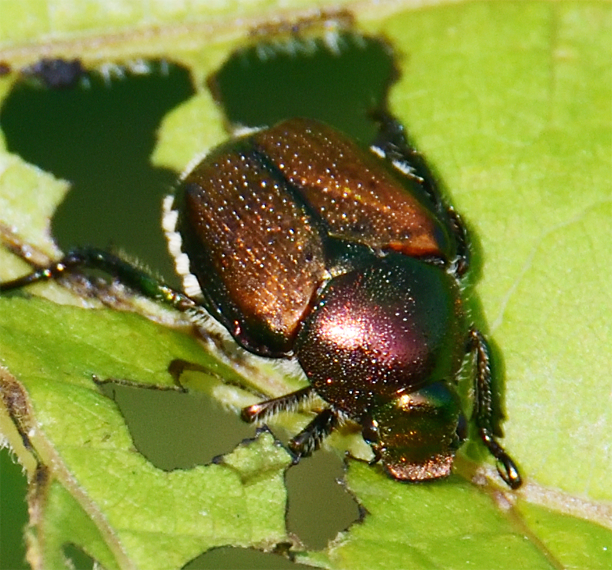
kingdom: Animalia
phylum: Arthropoda
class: Insecta
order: Coleoptera
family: Scarabaeidae
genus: Popillia
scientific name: Popillia japonica
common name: Japanese beetle
